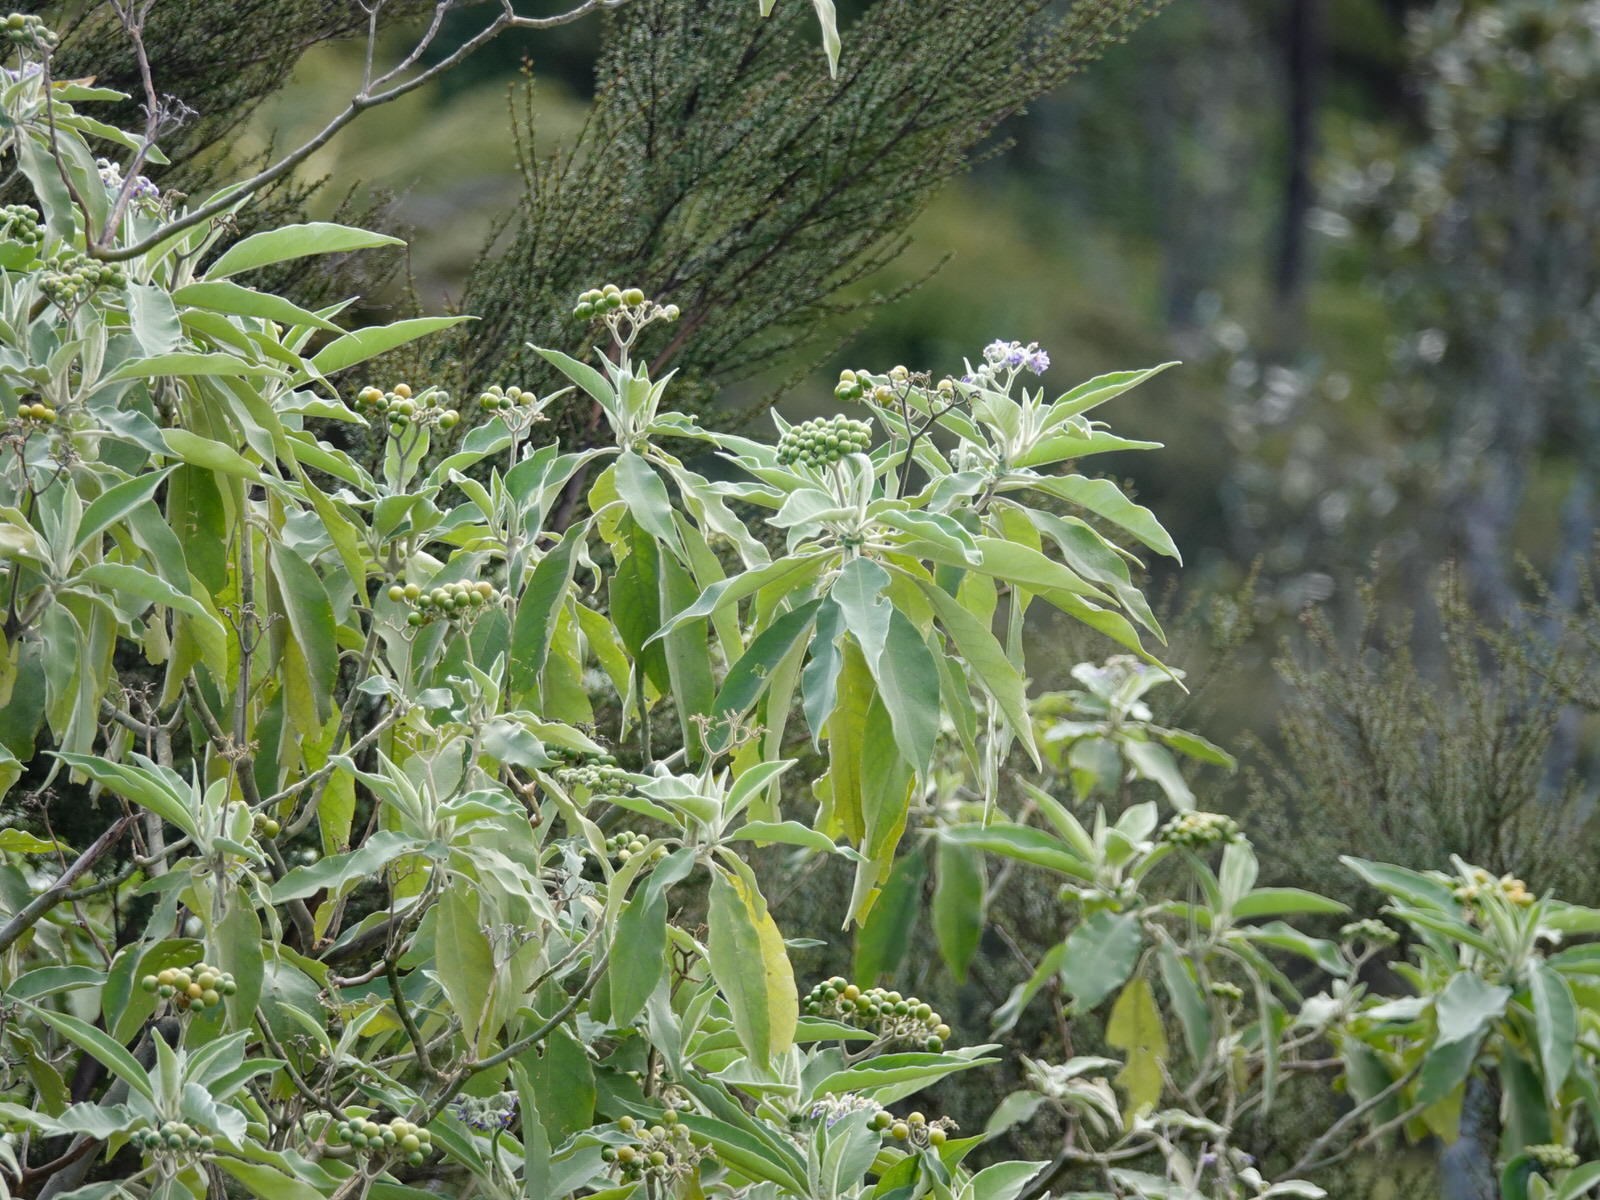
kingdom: Plantae
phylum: Tracheophyta
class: Magnoliopsida
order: Solanales
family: Solanaceae
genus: Solanum
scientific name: Solanum mauritianum
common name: Earleaf nightshade
